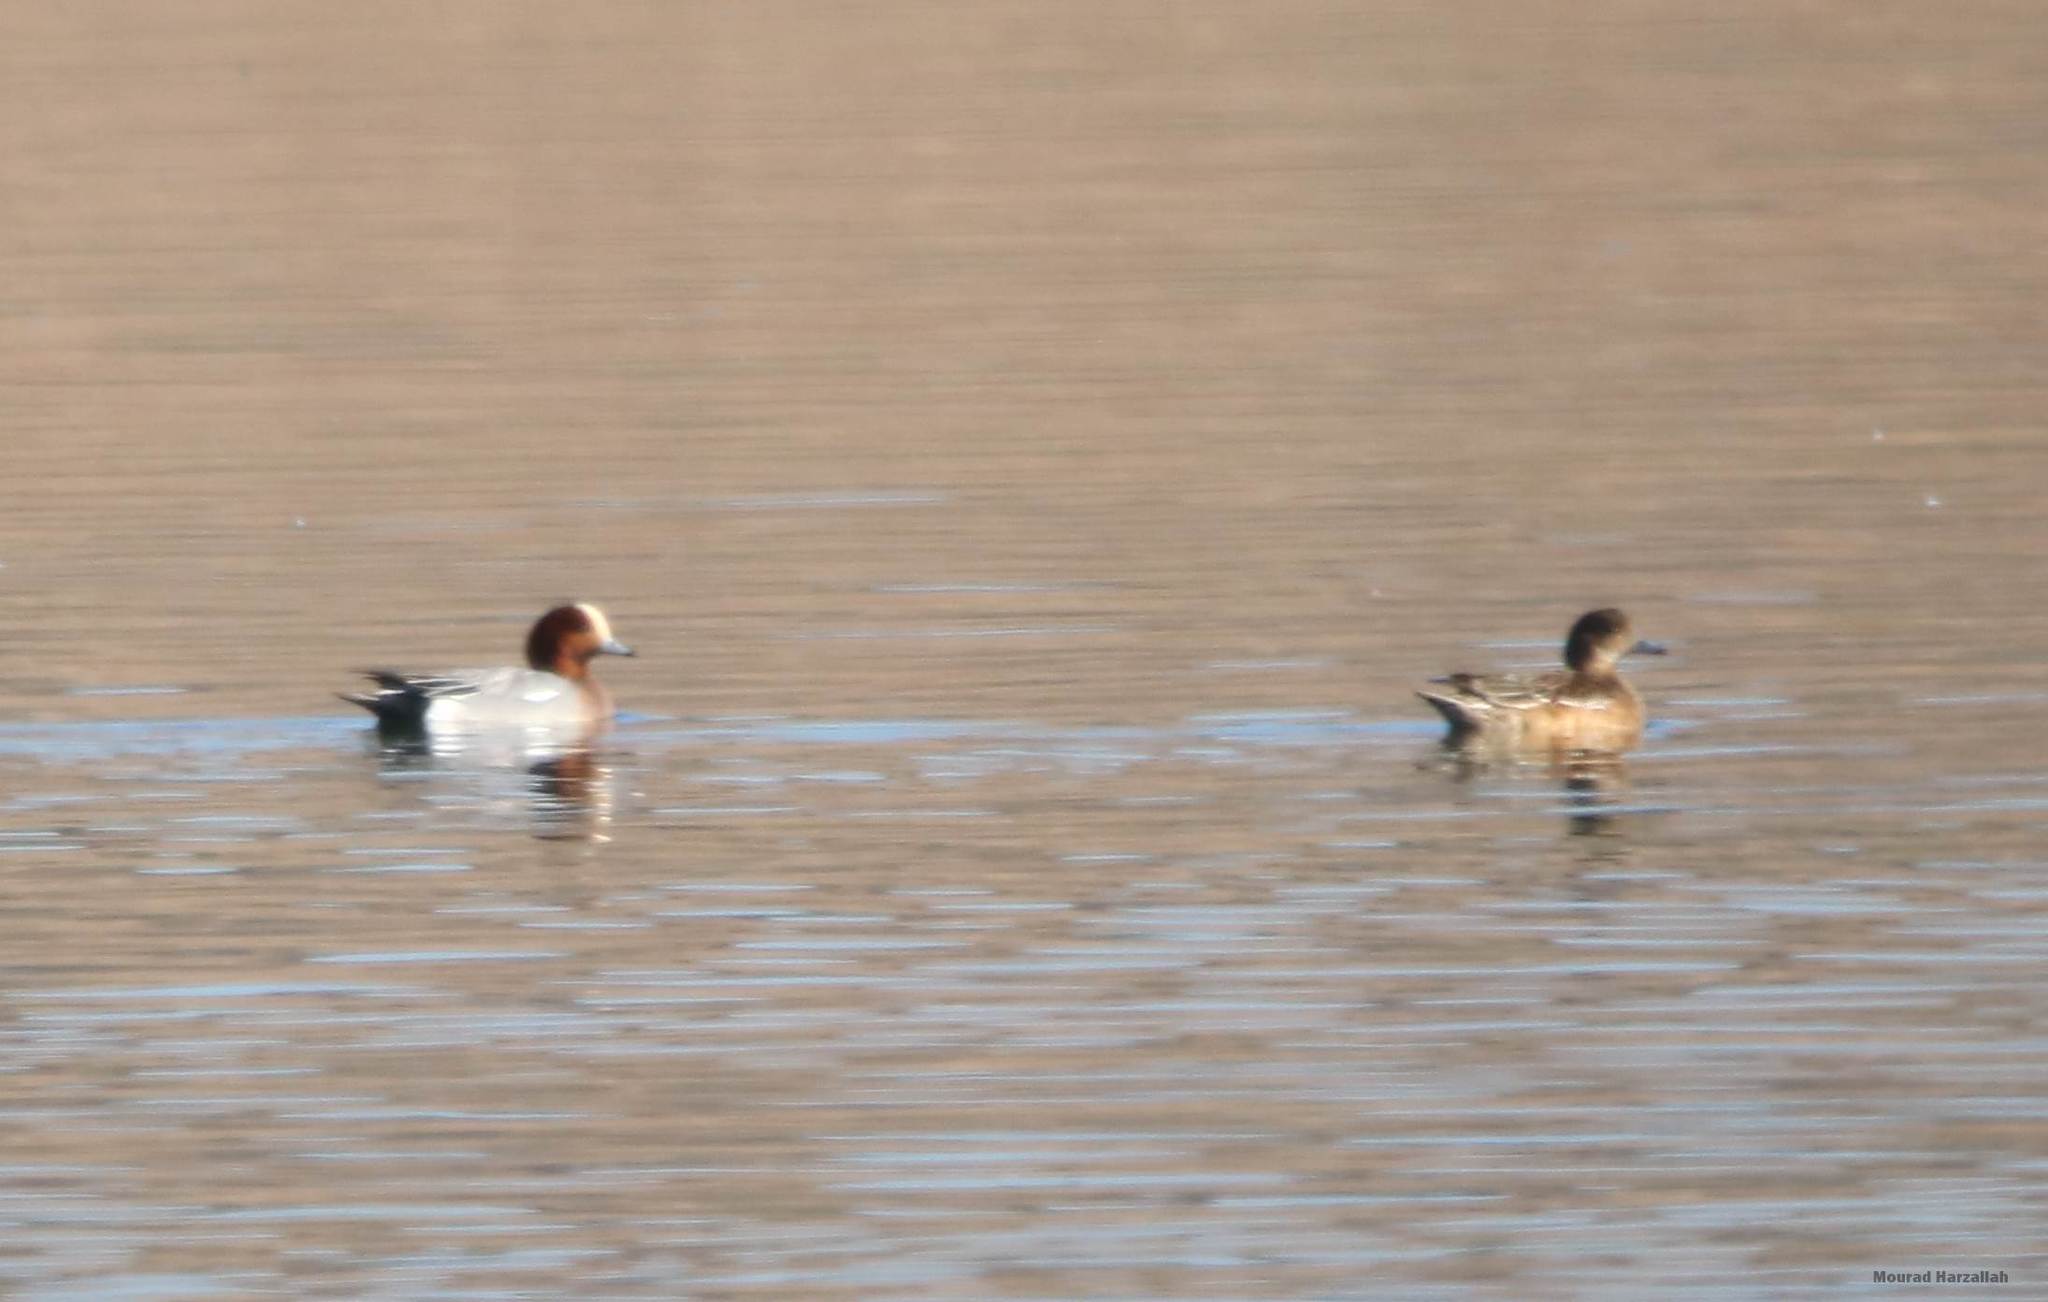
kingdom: Animalia
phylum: Chordata
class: Aves
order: Anseriformes
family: Anatidae
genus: Mareca
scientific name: Mareca penelope
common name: Eurasian wigeon
